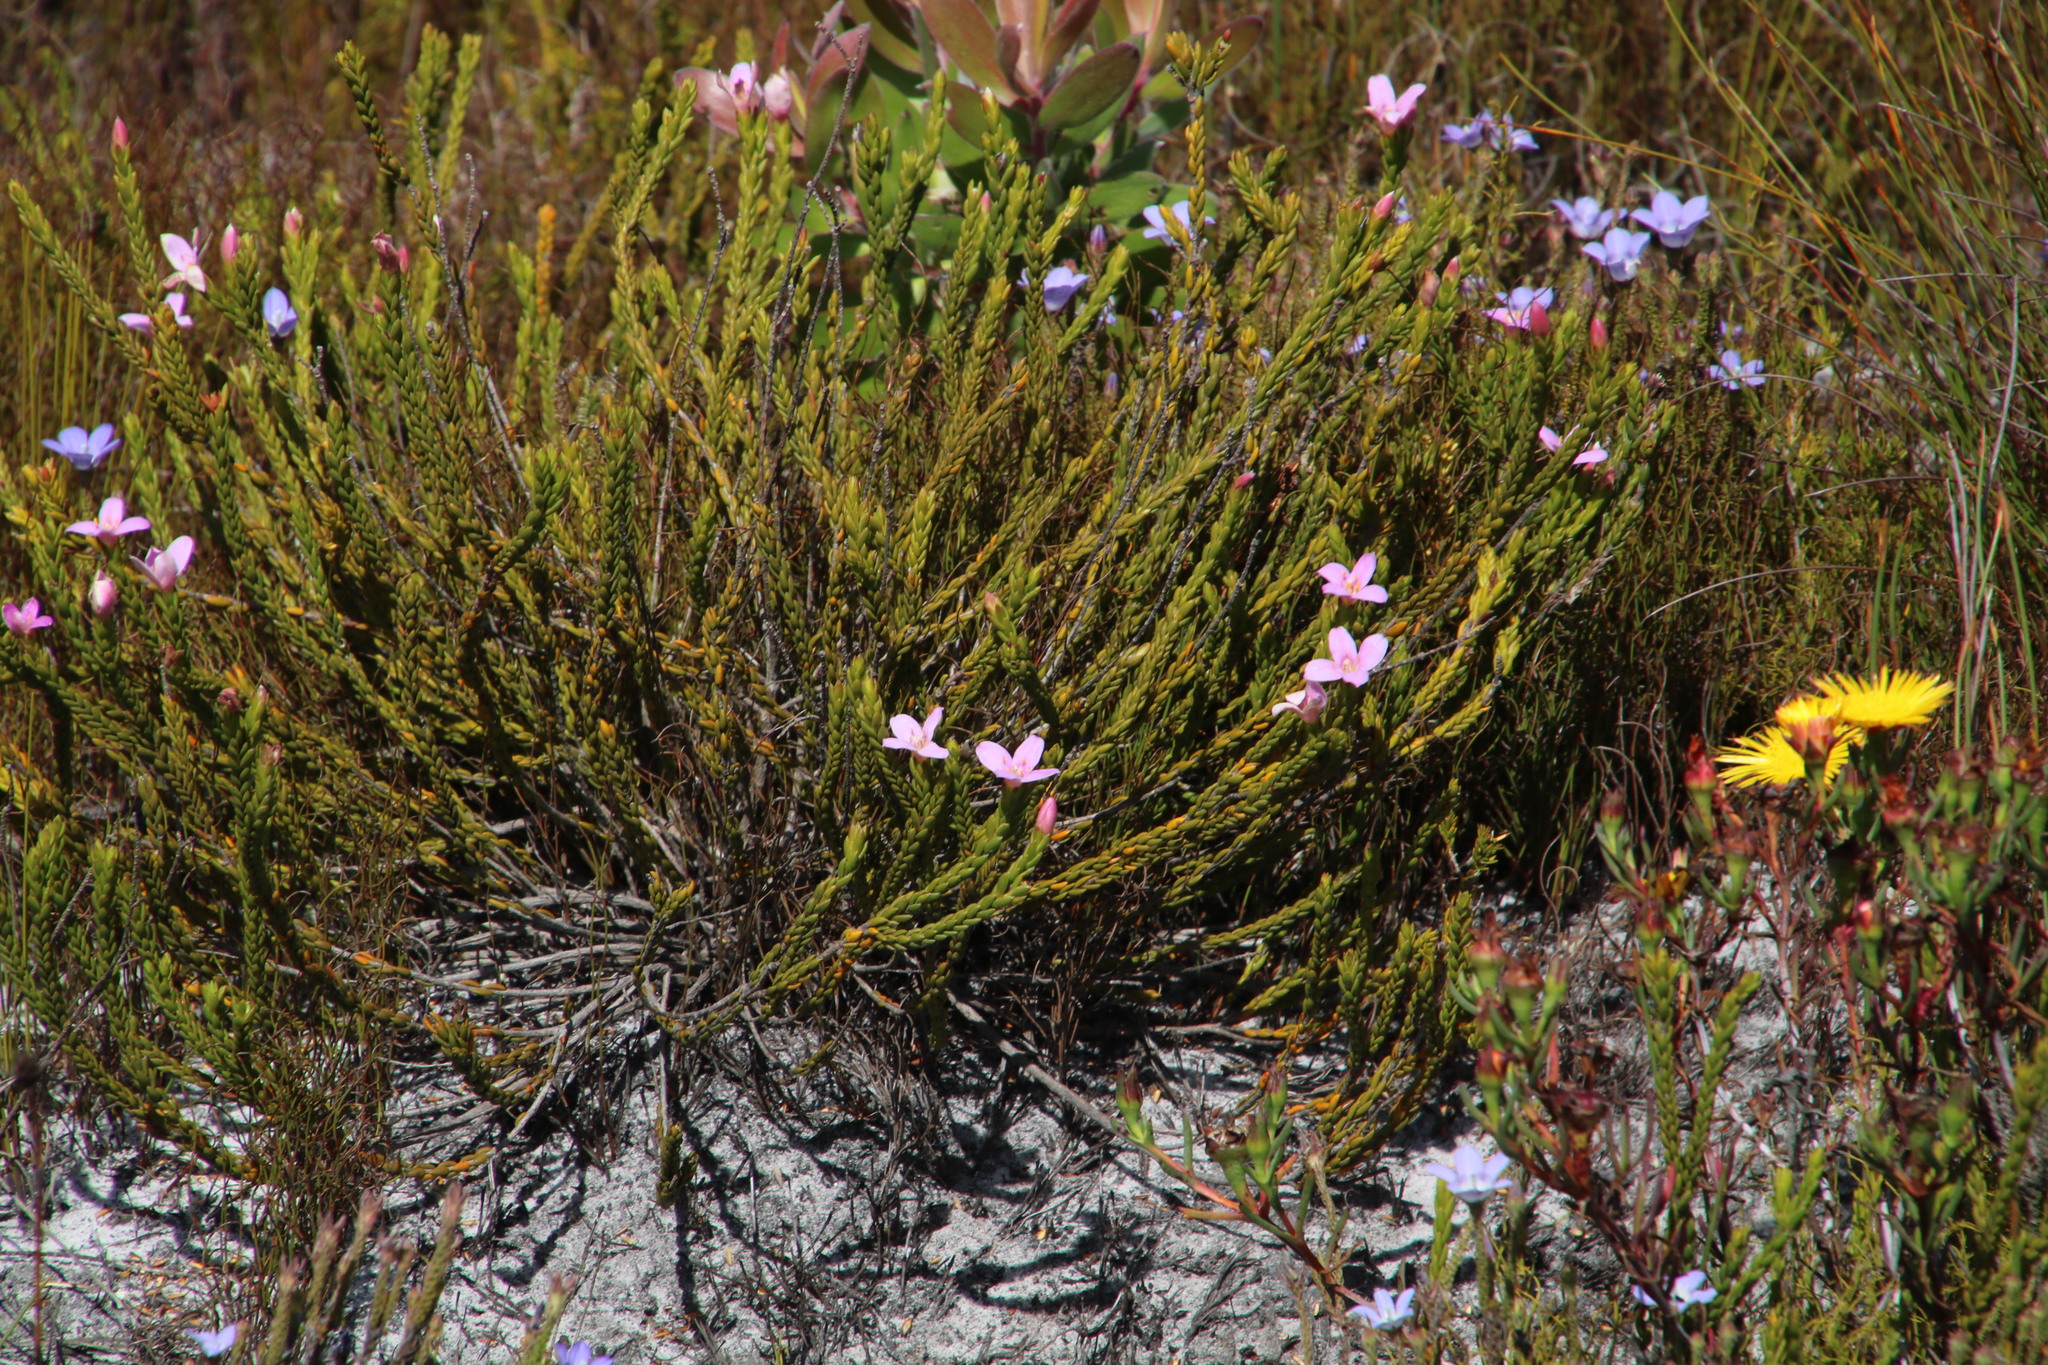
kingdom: Plantae
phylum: Tracheophyta
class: Magnoliopsida
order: Malvales
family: Thymelaeaceae
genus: Lachnaea
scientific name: Lachnaea grandiflora
